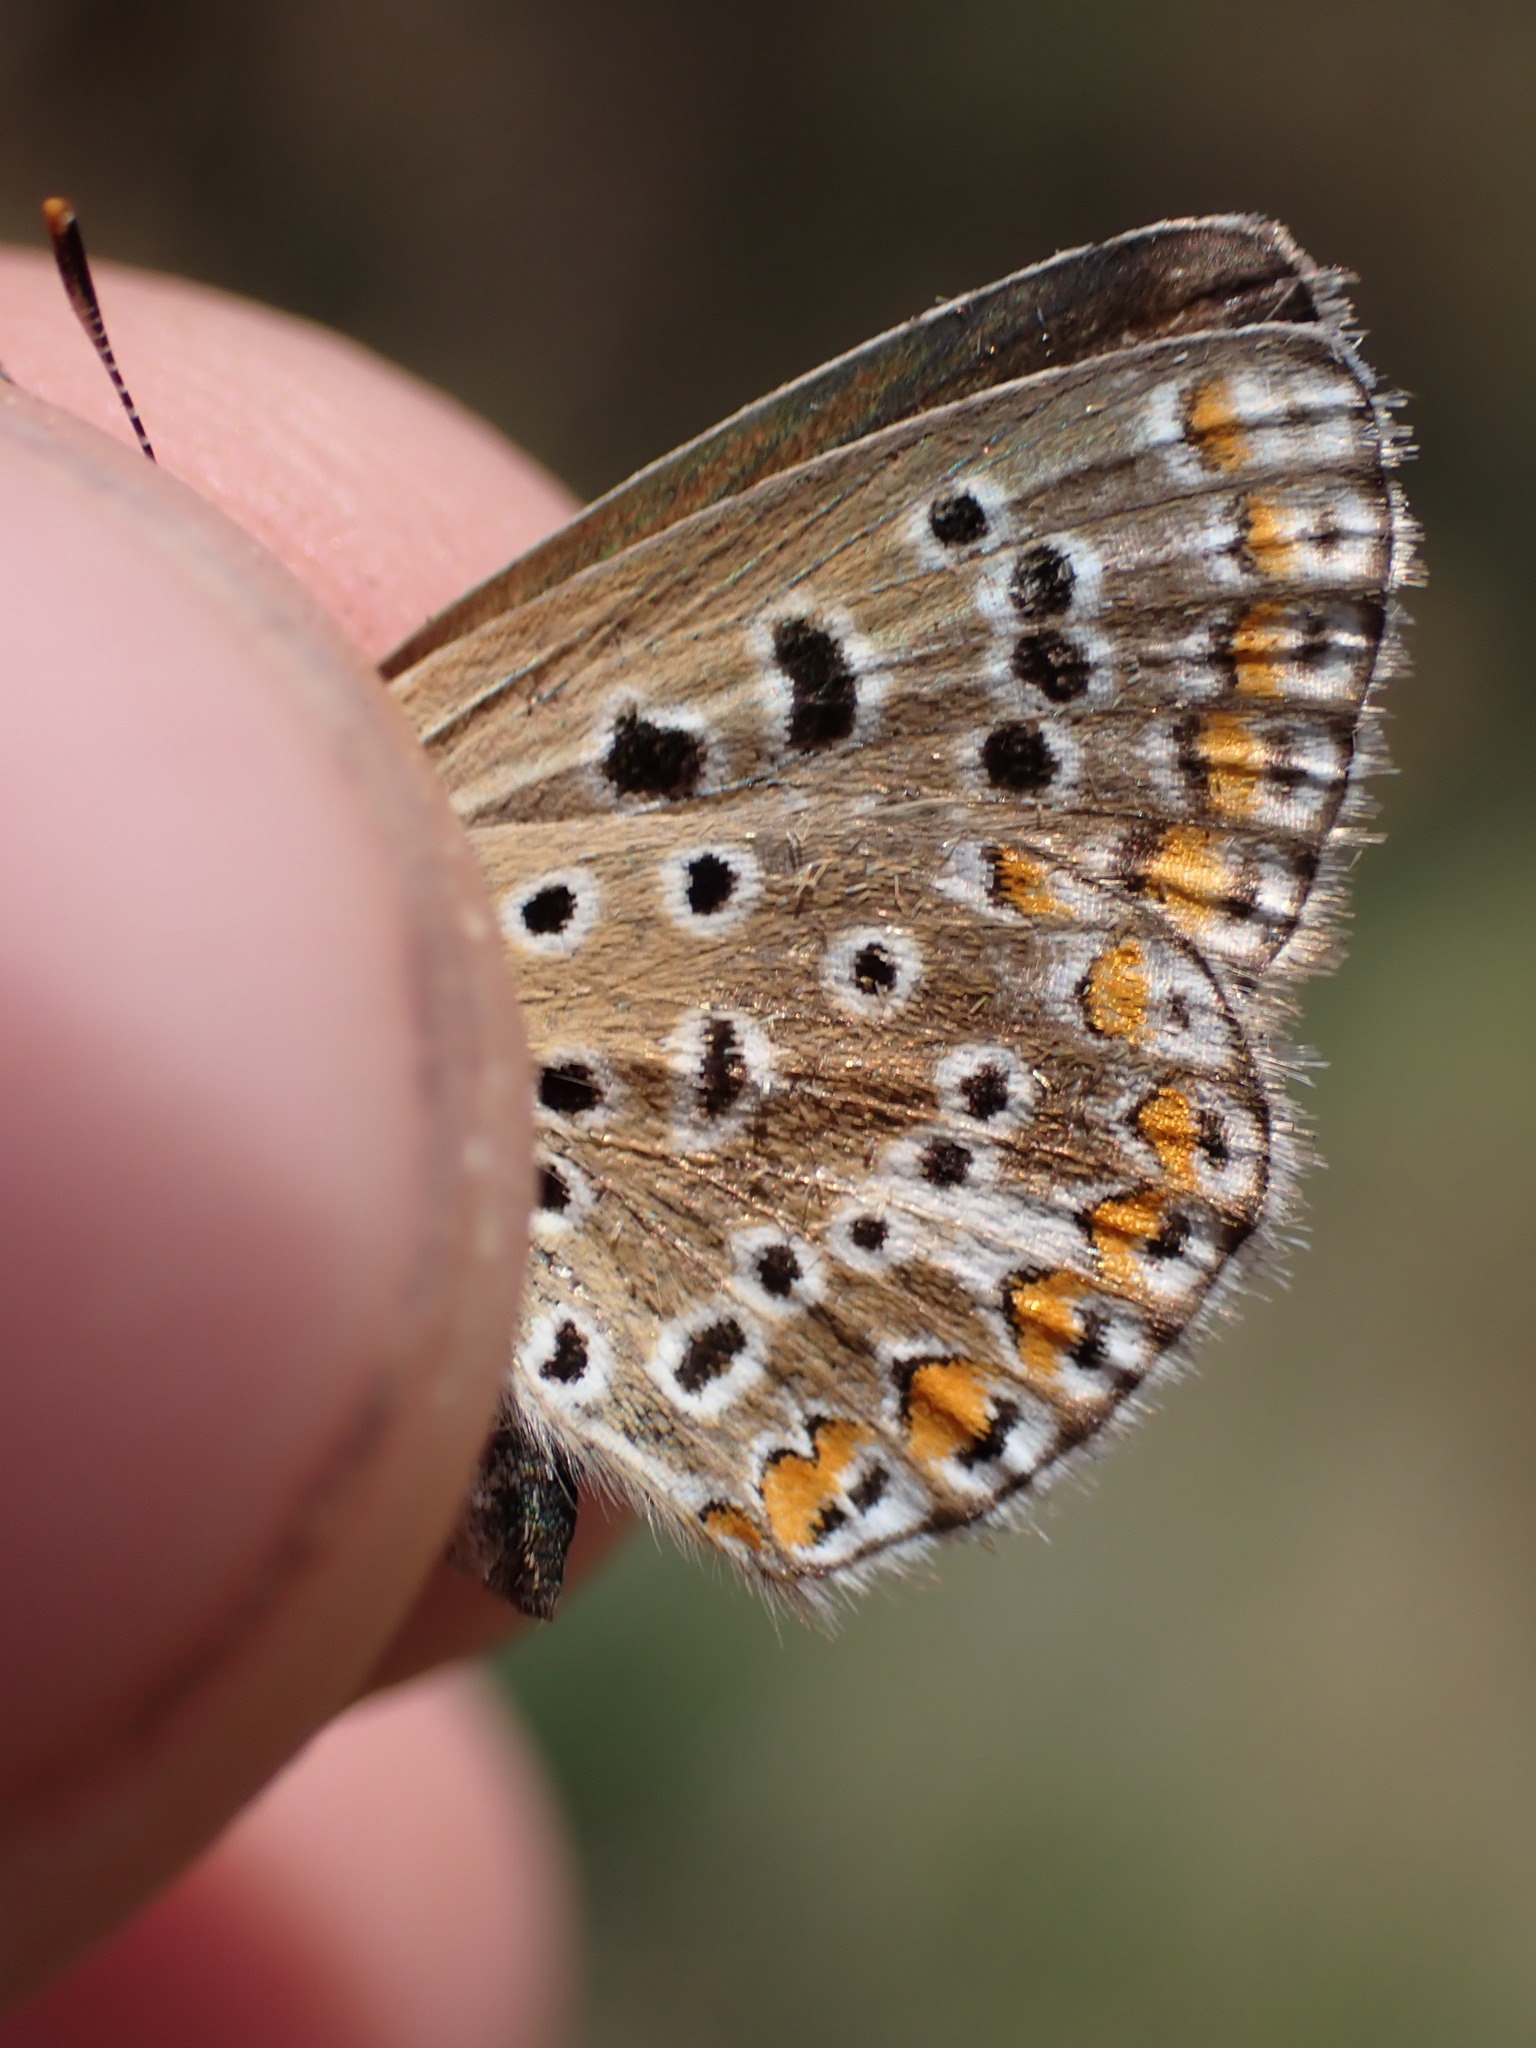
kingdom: Animalia
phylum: Arthropoda
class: Insecta
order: Lepidoptera
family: Lycaenidae
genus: Polyommatus
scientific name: Polyommatus icarus
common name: Common blue
